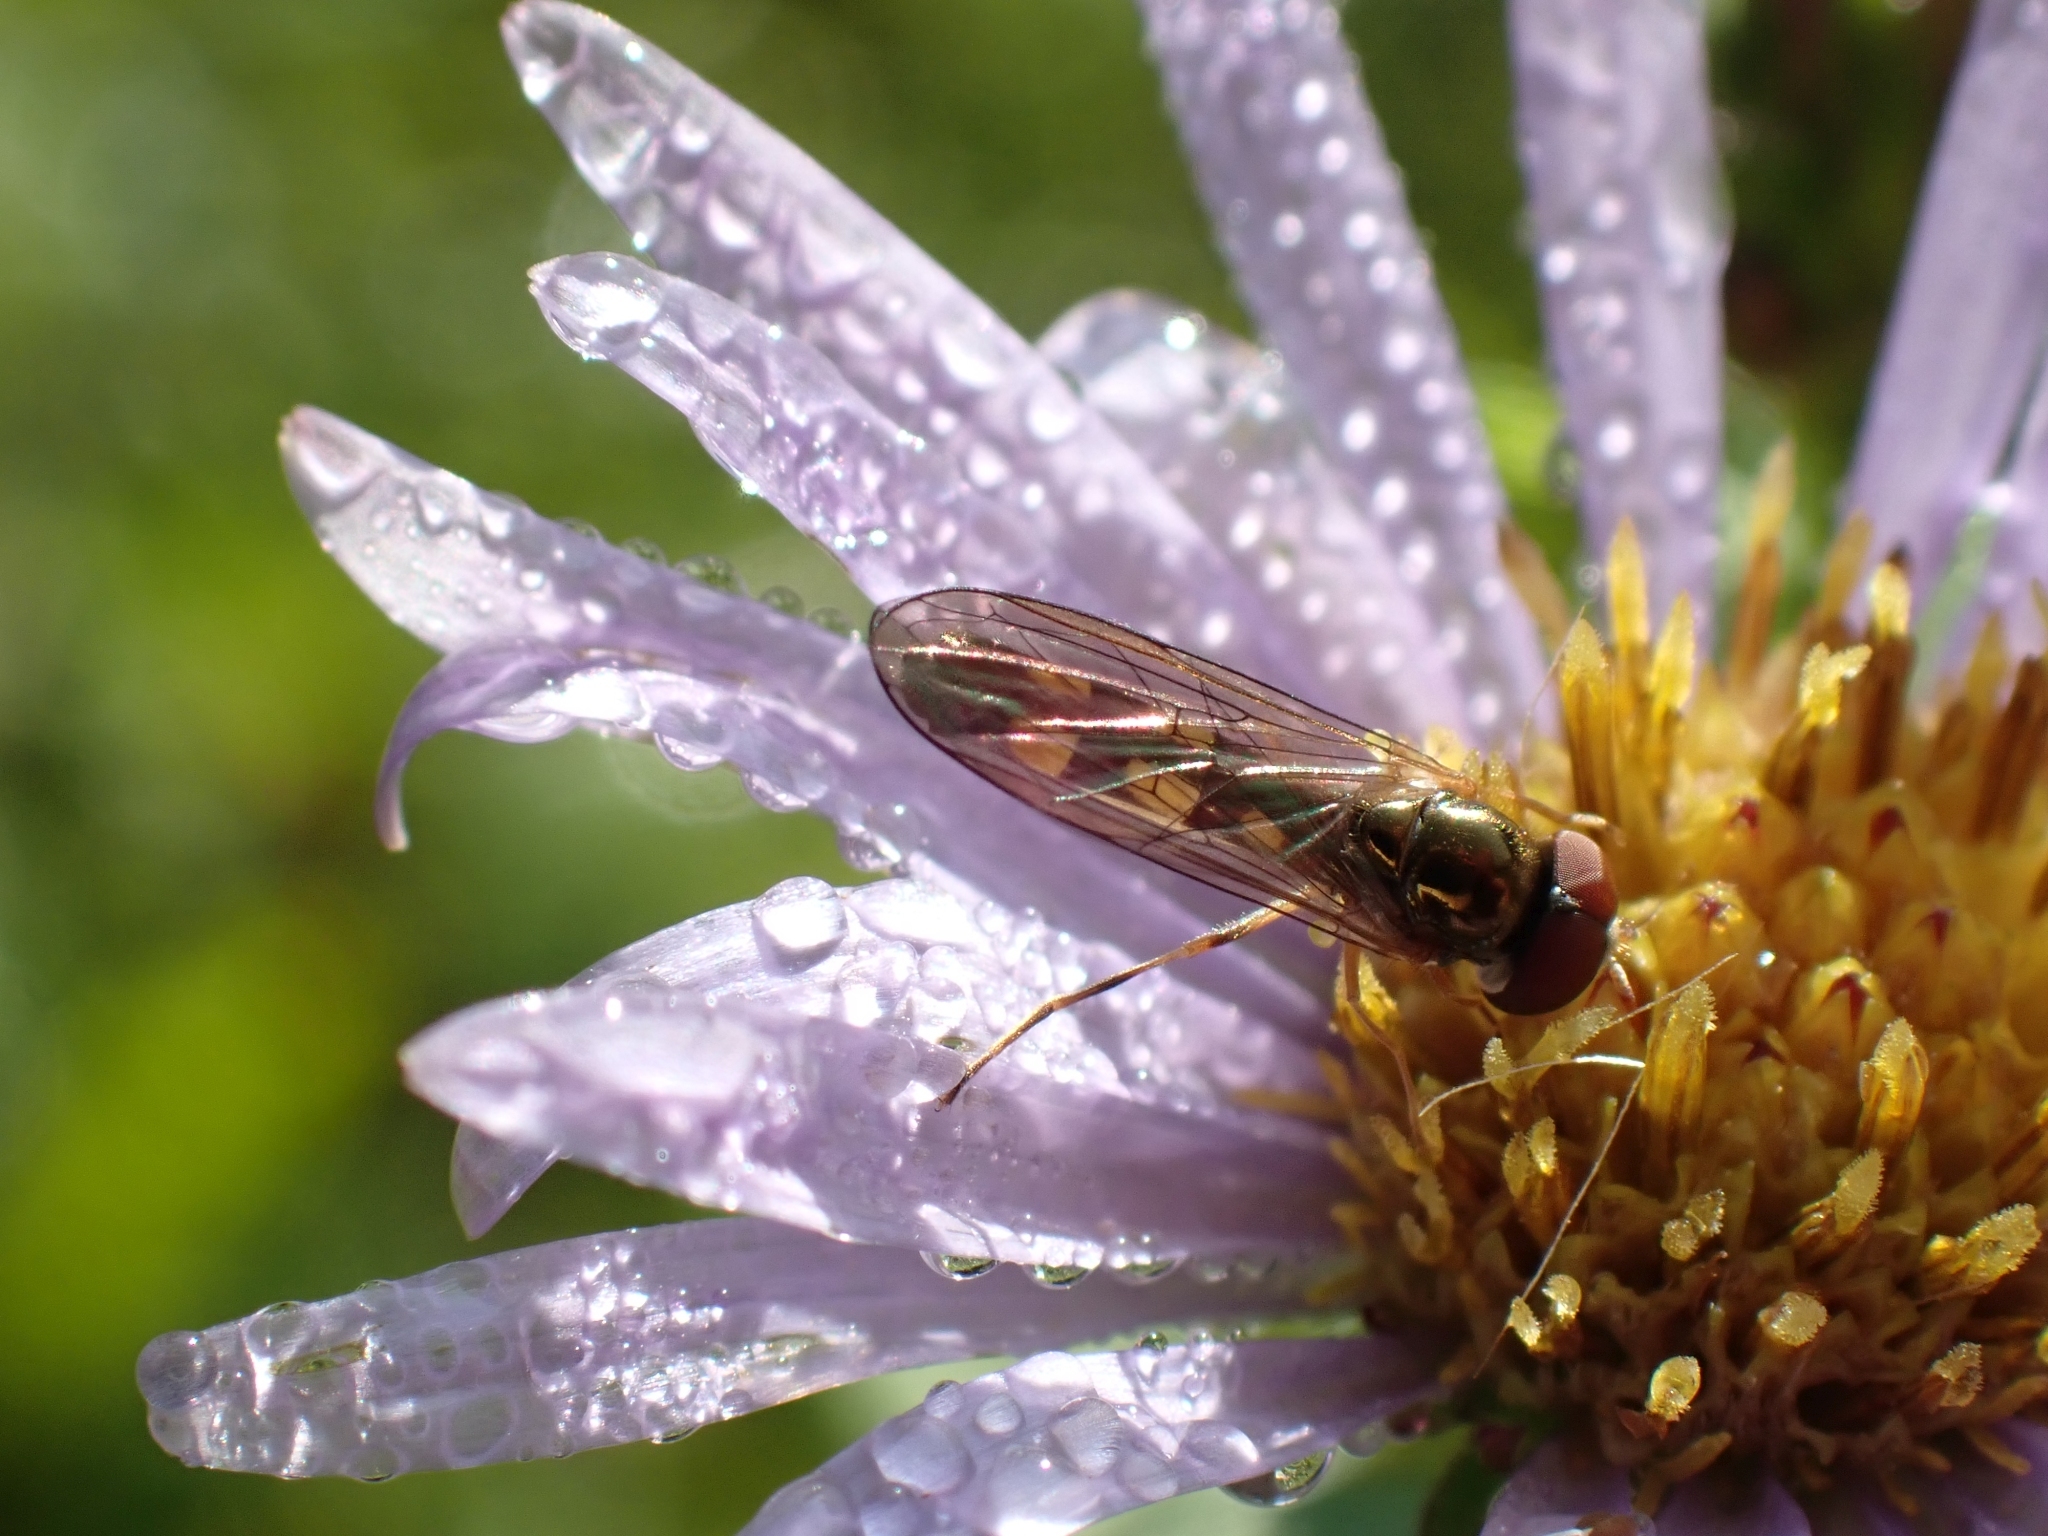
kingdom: Animalia
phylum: Arthropoda
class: Insecta
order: Diptera
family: Syrphidae
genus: Melanostoma
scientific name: Melanostoma mellina
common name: Hover fly
